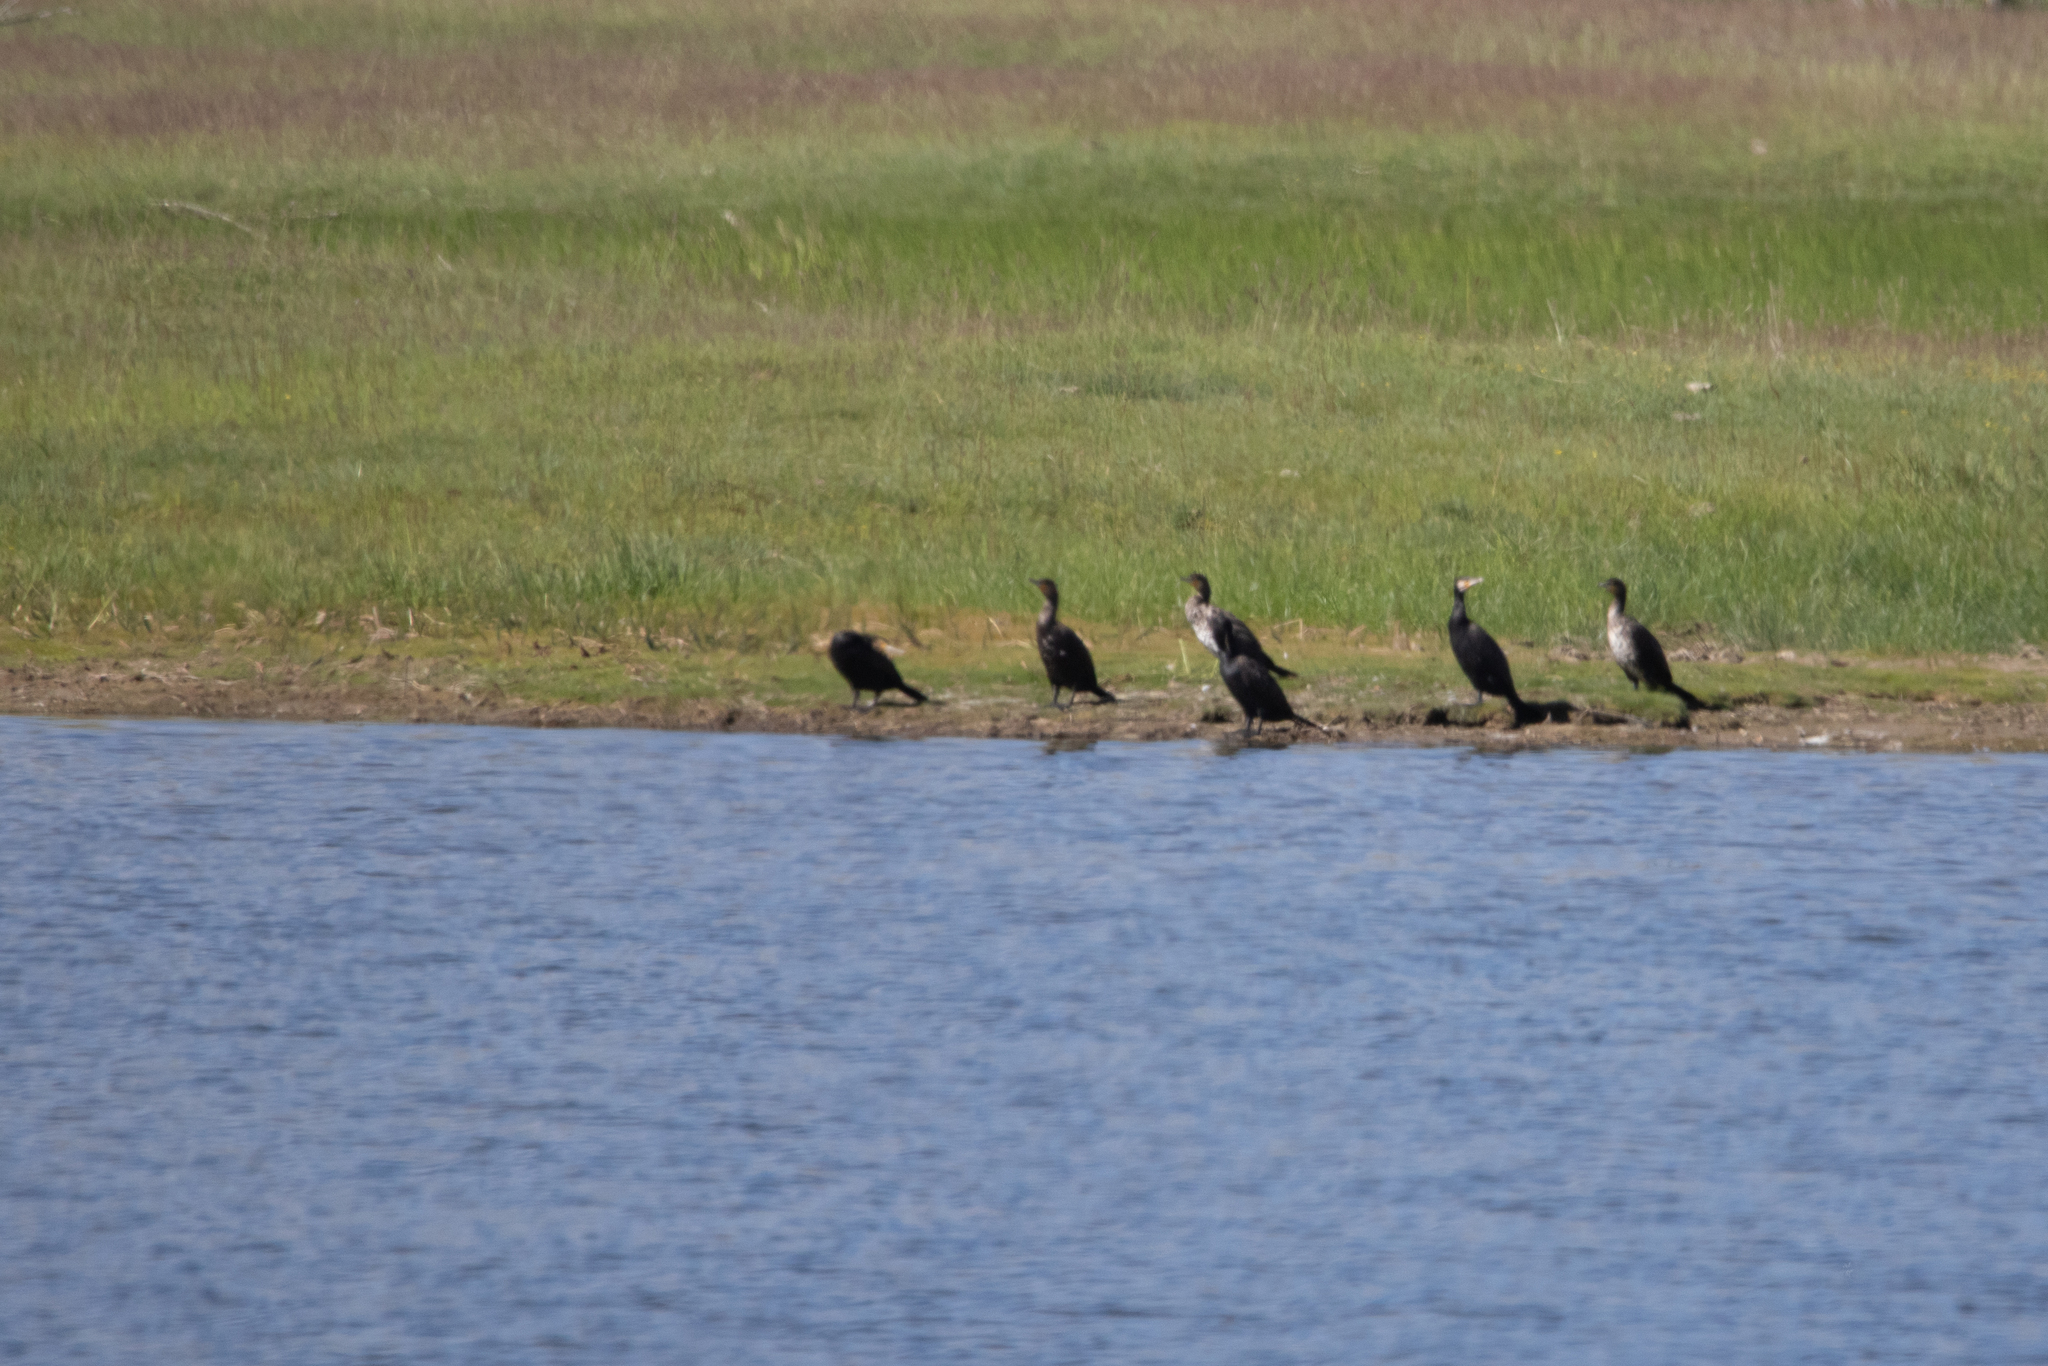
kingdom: Animalia
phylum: Chordata
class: Aves
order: Suliformes
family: Phalacrocoracidae
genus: Phalacrocorax
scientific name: Phalacrocorax carbo
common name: Great cormorant
